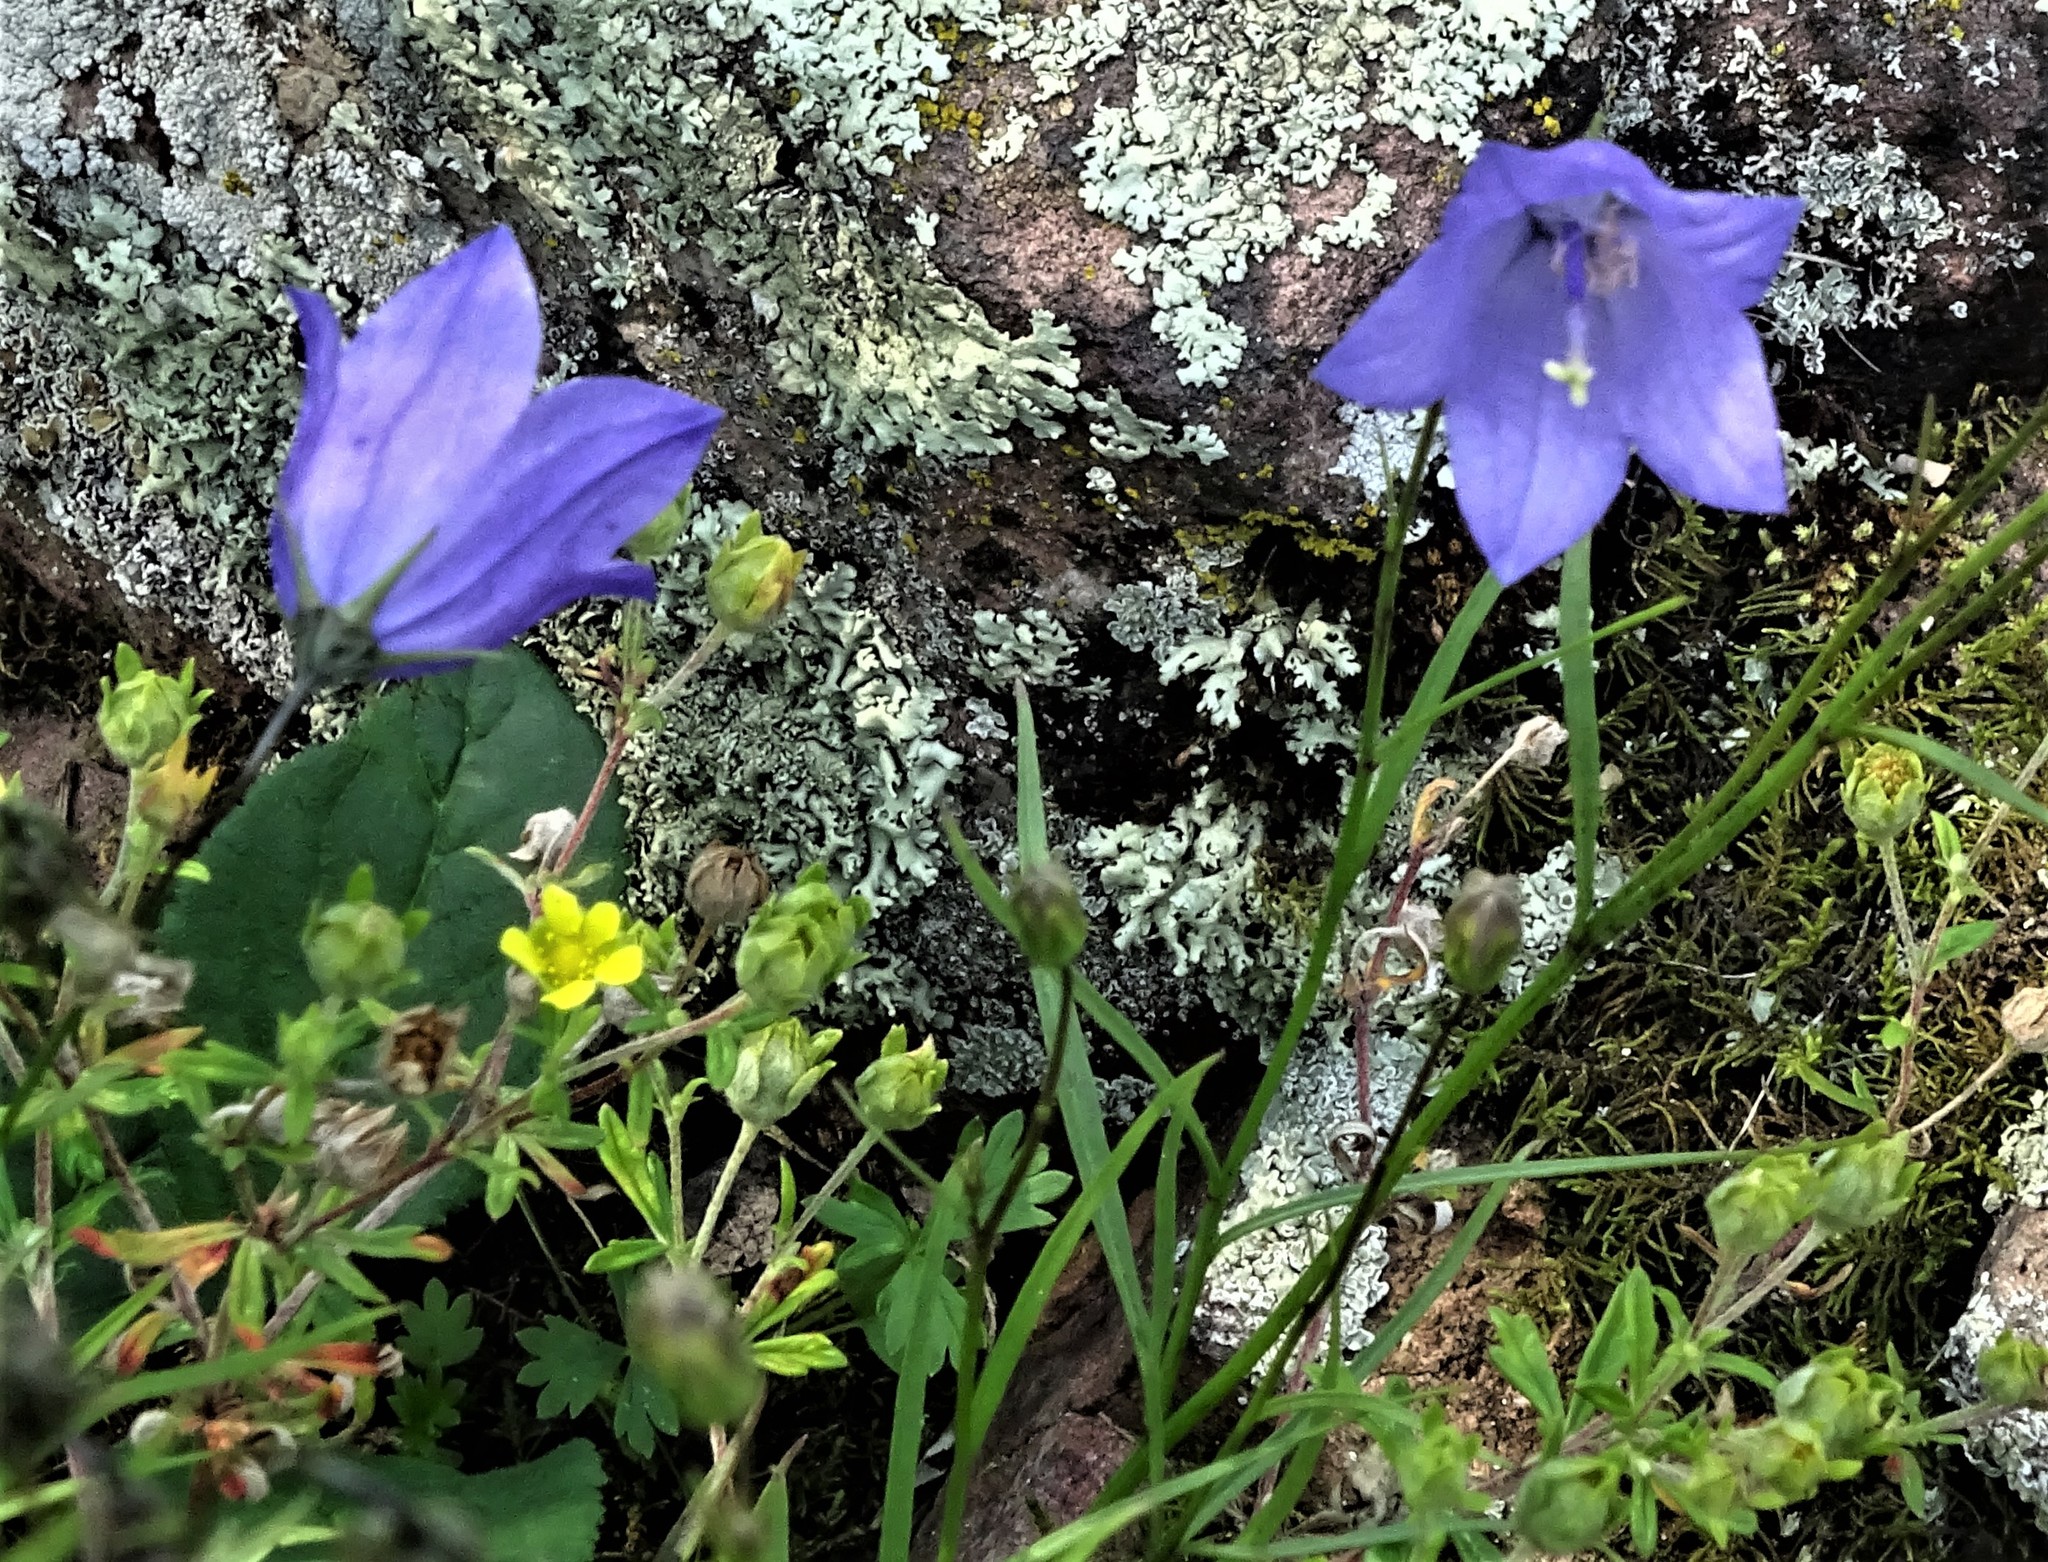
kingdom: Plantae
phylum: Tracheophyta
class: Magnoliopsida
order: Asterales
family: Campanulaceae
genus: Campanula
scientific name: Campanula intercedens
